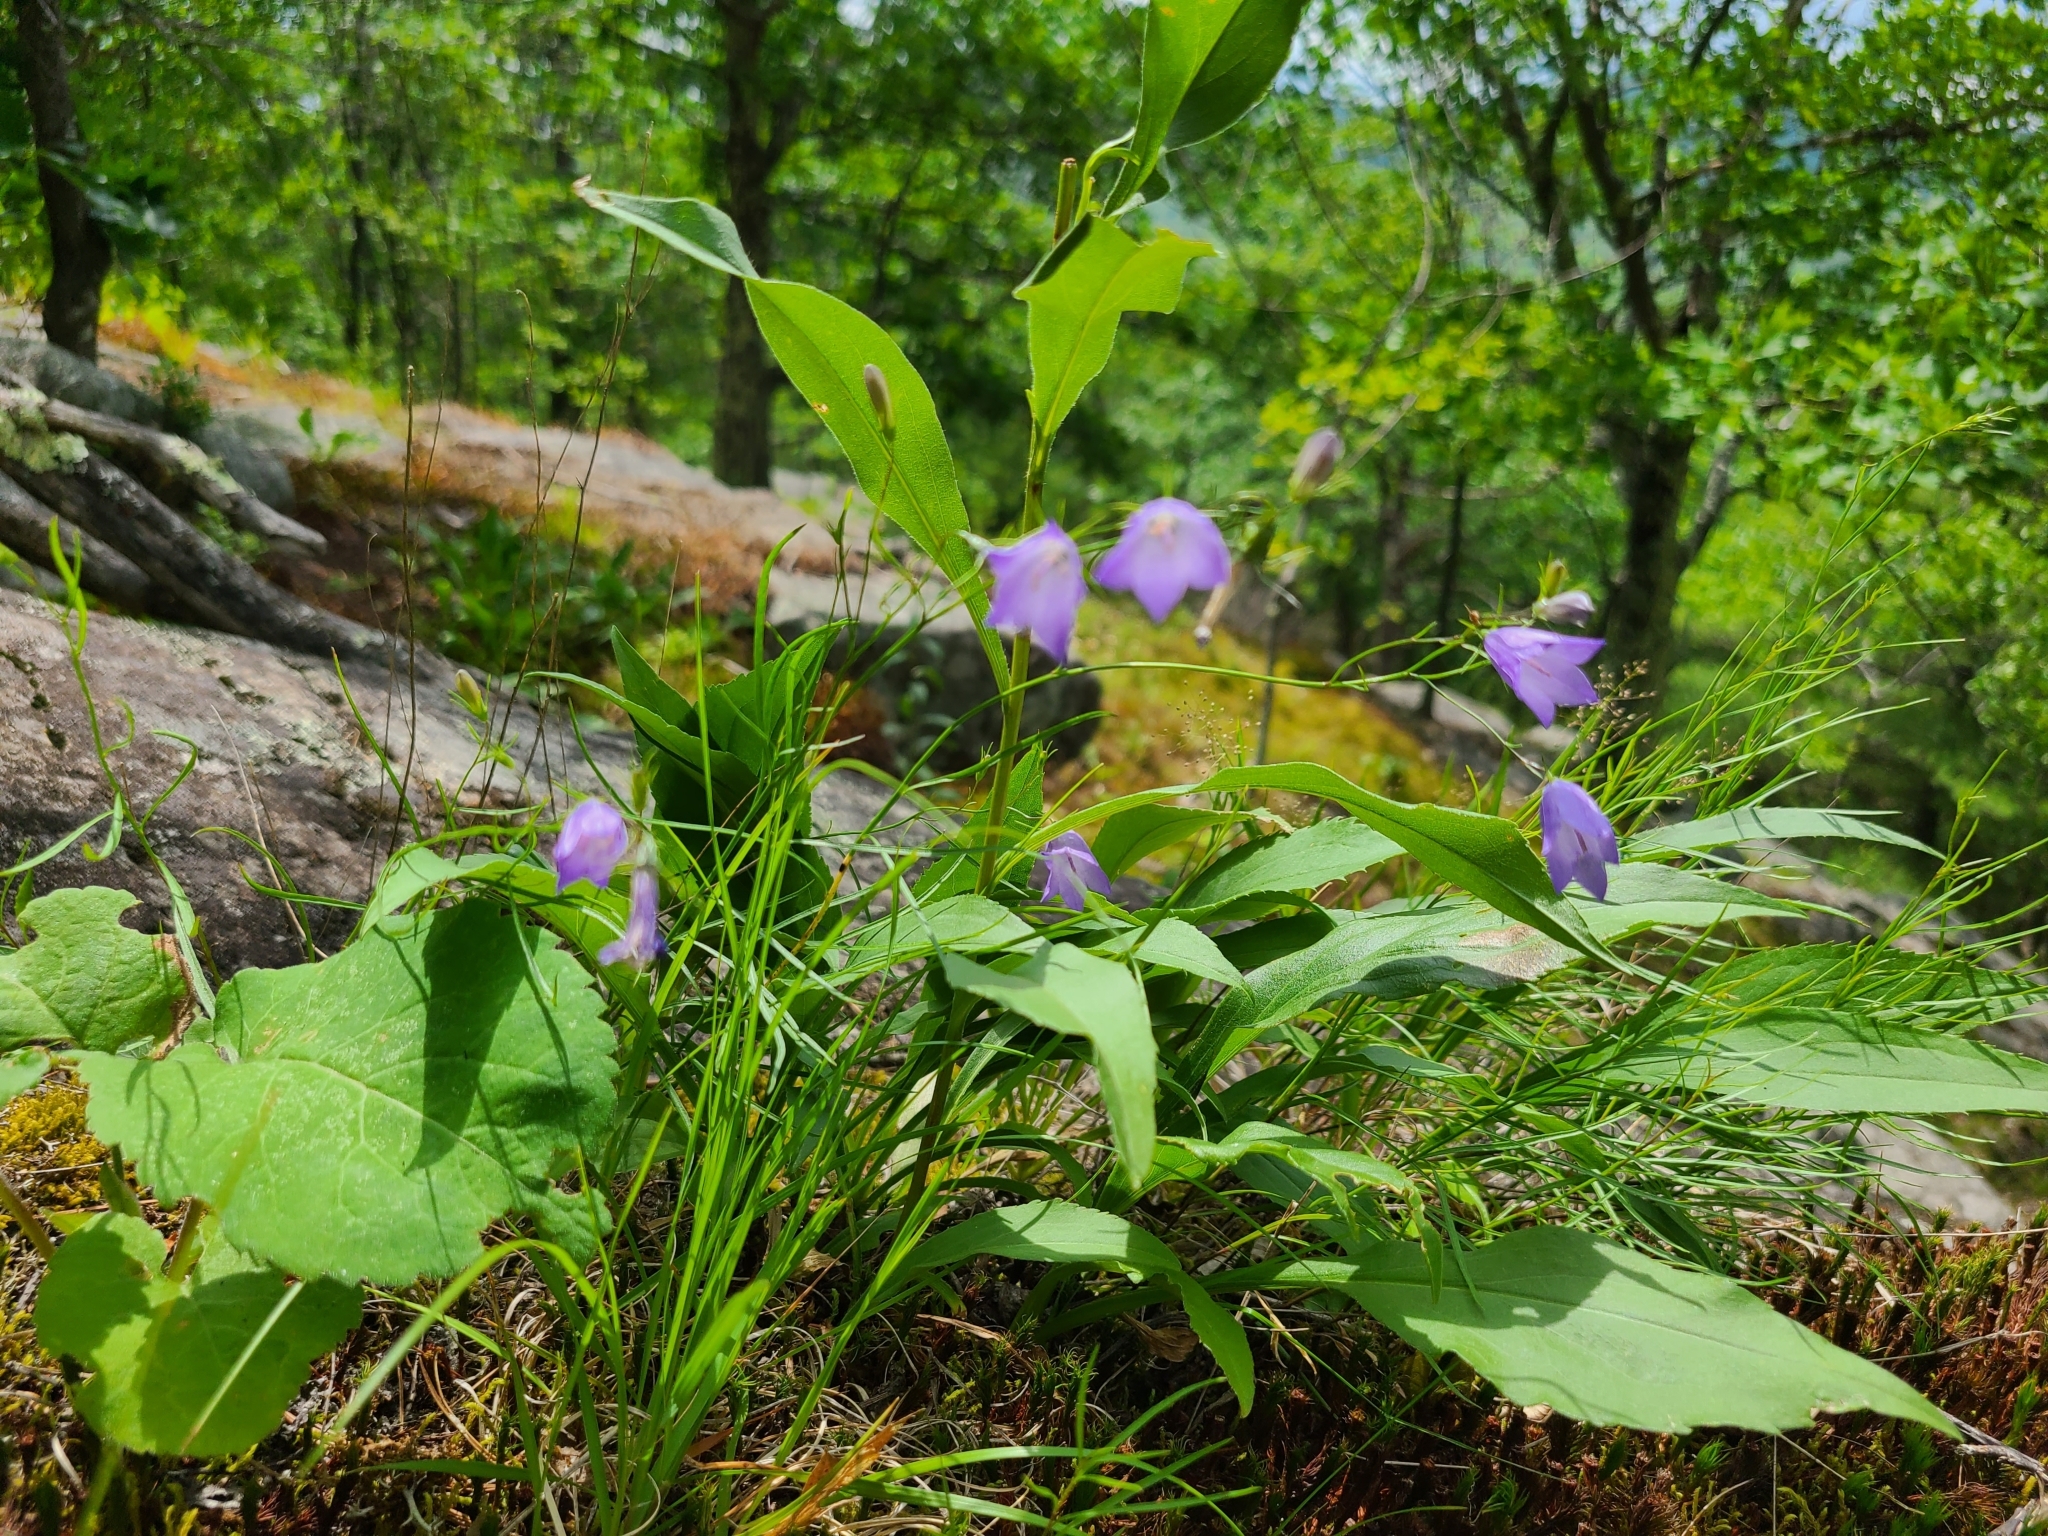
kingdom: Plantae
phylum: Tracheophyta
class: Magnoliopsida
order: Asterales
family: Campanulaceae
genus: Campanula
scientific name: Campanula intercedens
